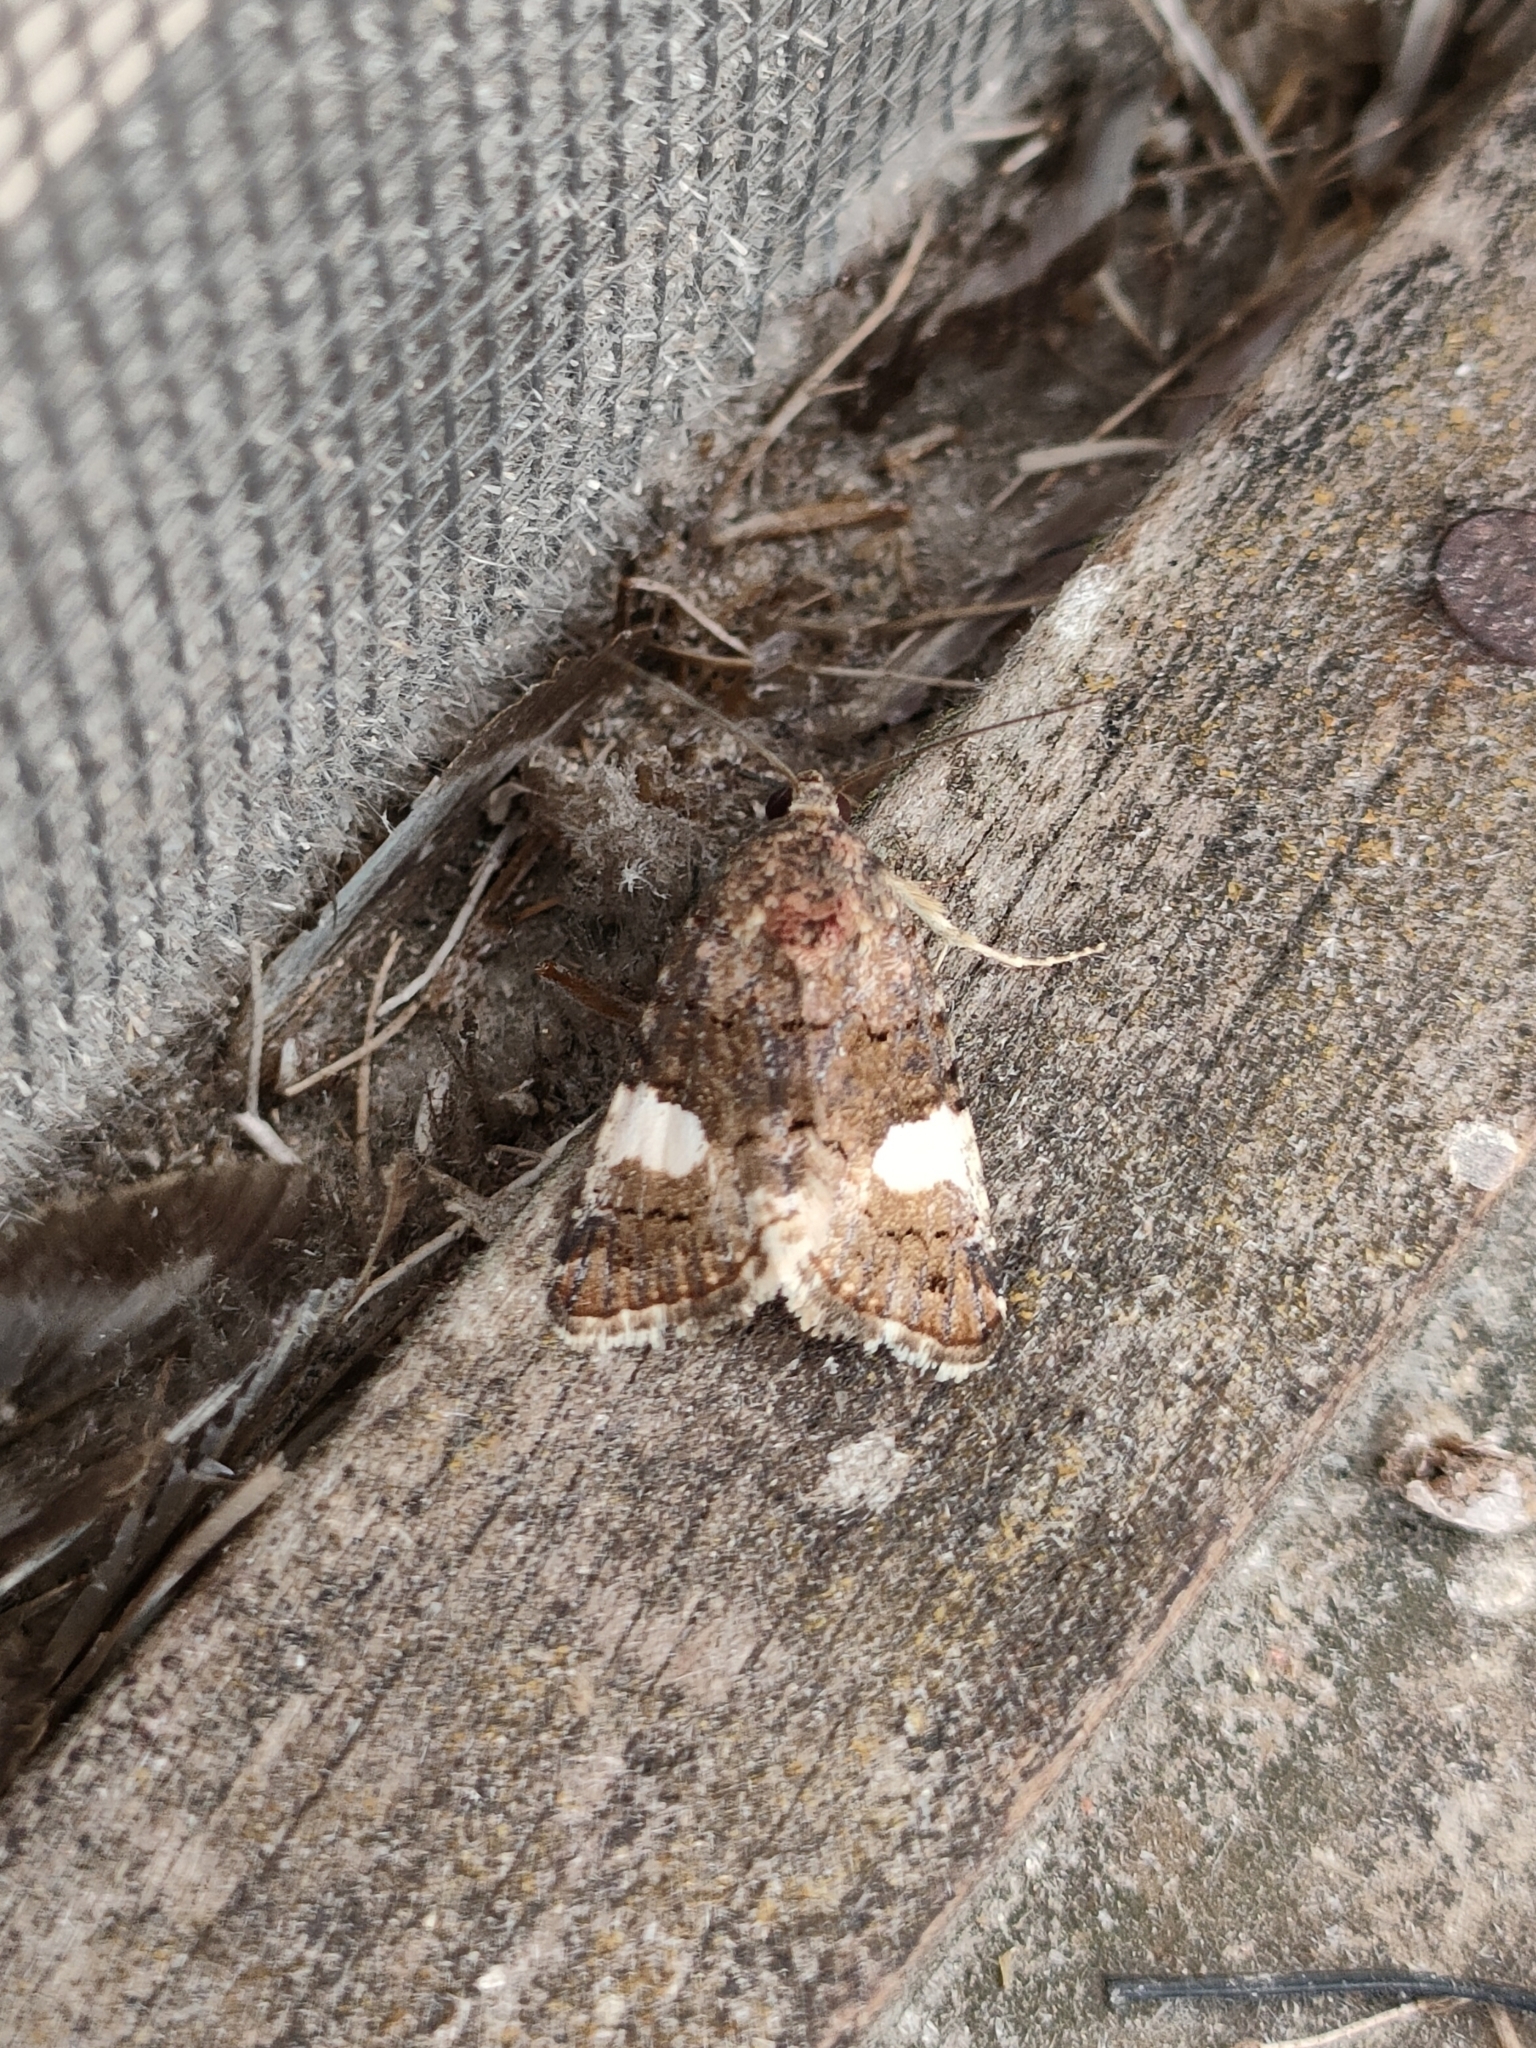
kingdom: Animalia
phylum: Arthropoda
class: Insecta
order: Lepidoptera
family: Erebidae
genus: Tyta
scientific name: Tyta luctuosa
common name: Four-spotted
